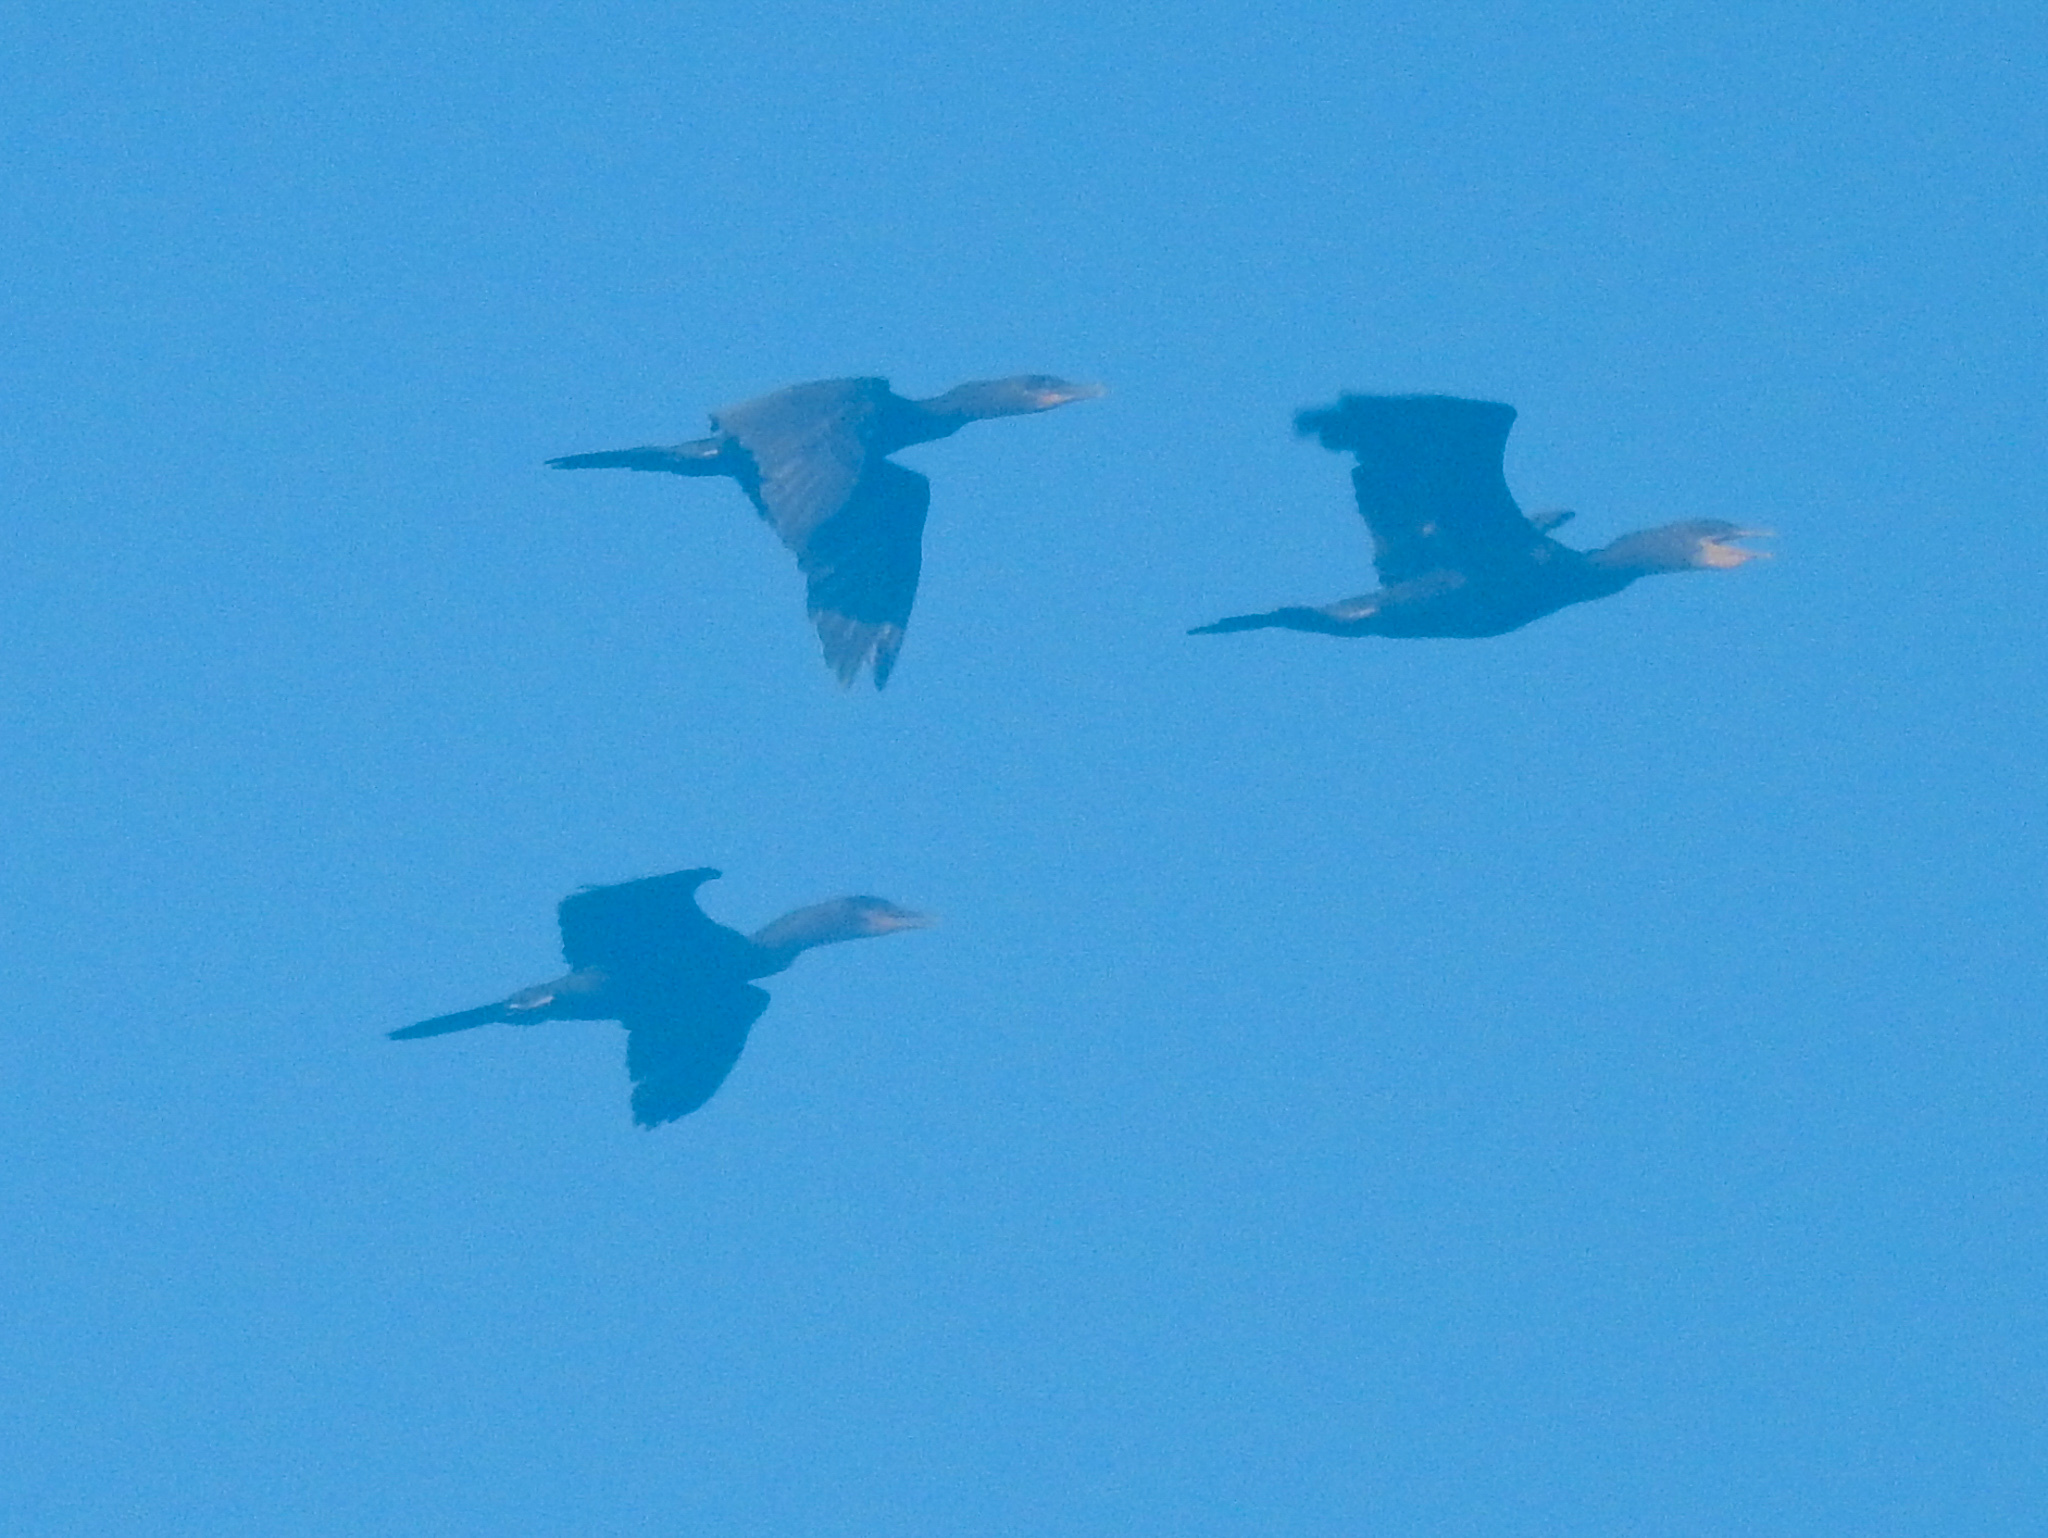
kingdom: Animalia
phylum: Chordata
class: Aves
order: Suliformes
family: Phalacrocoracidae
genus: Phalacrocorax
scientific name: Phalacrocorax brasilianus
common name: Neotropic cormorant
